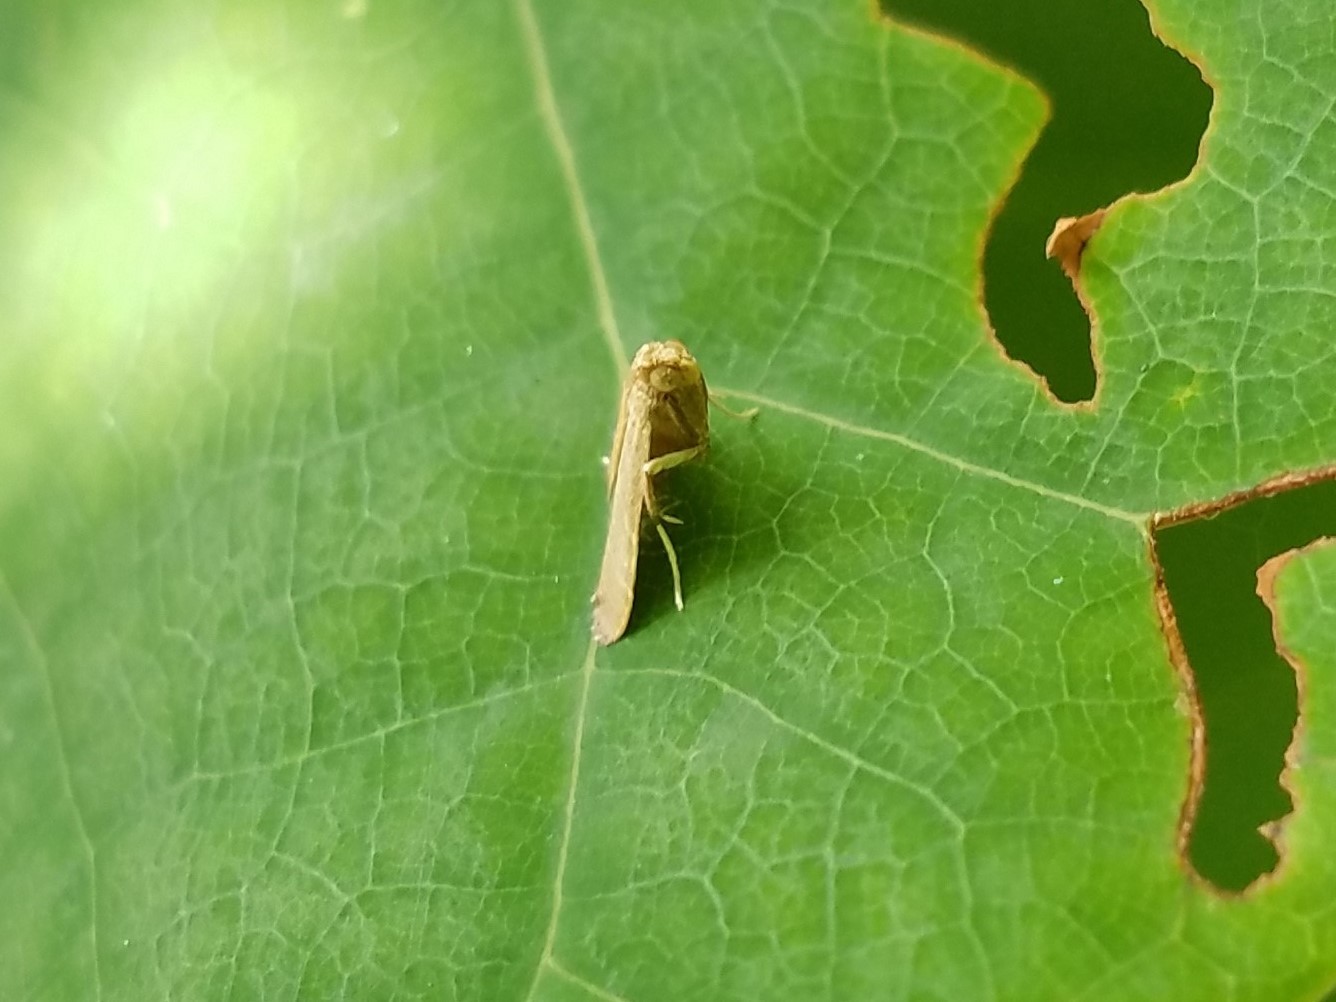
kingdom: Animalia
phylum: Arthropoda
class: Insecta
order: Lepidoptera
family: Pyralidae
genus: Arta
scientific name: Arta olivalis
